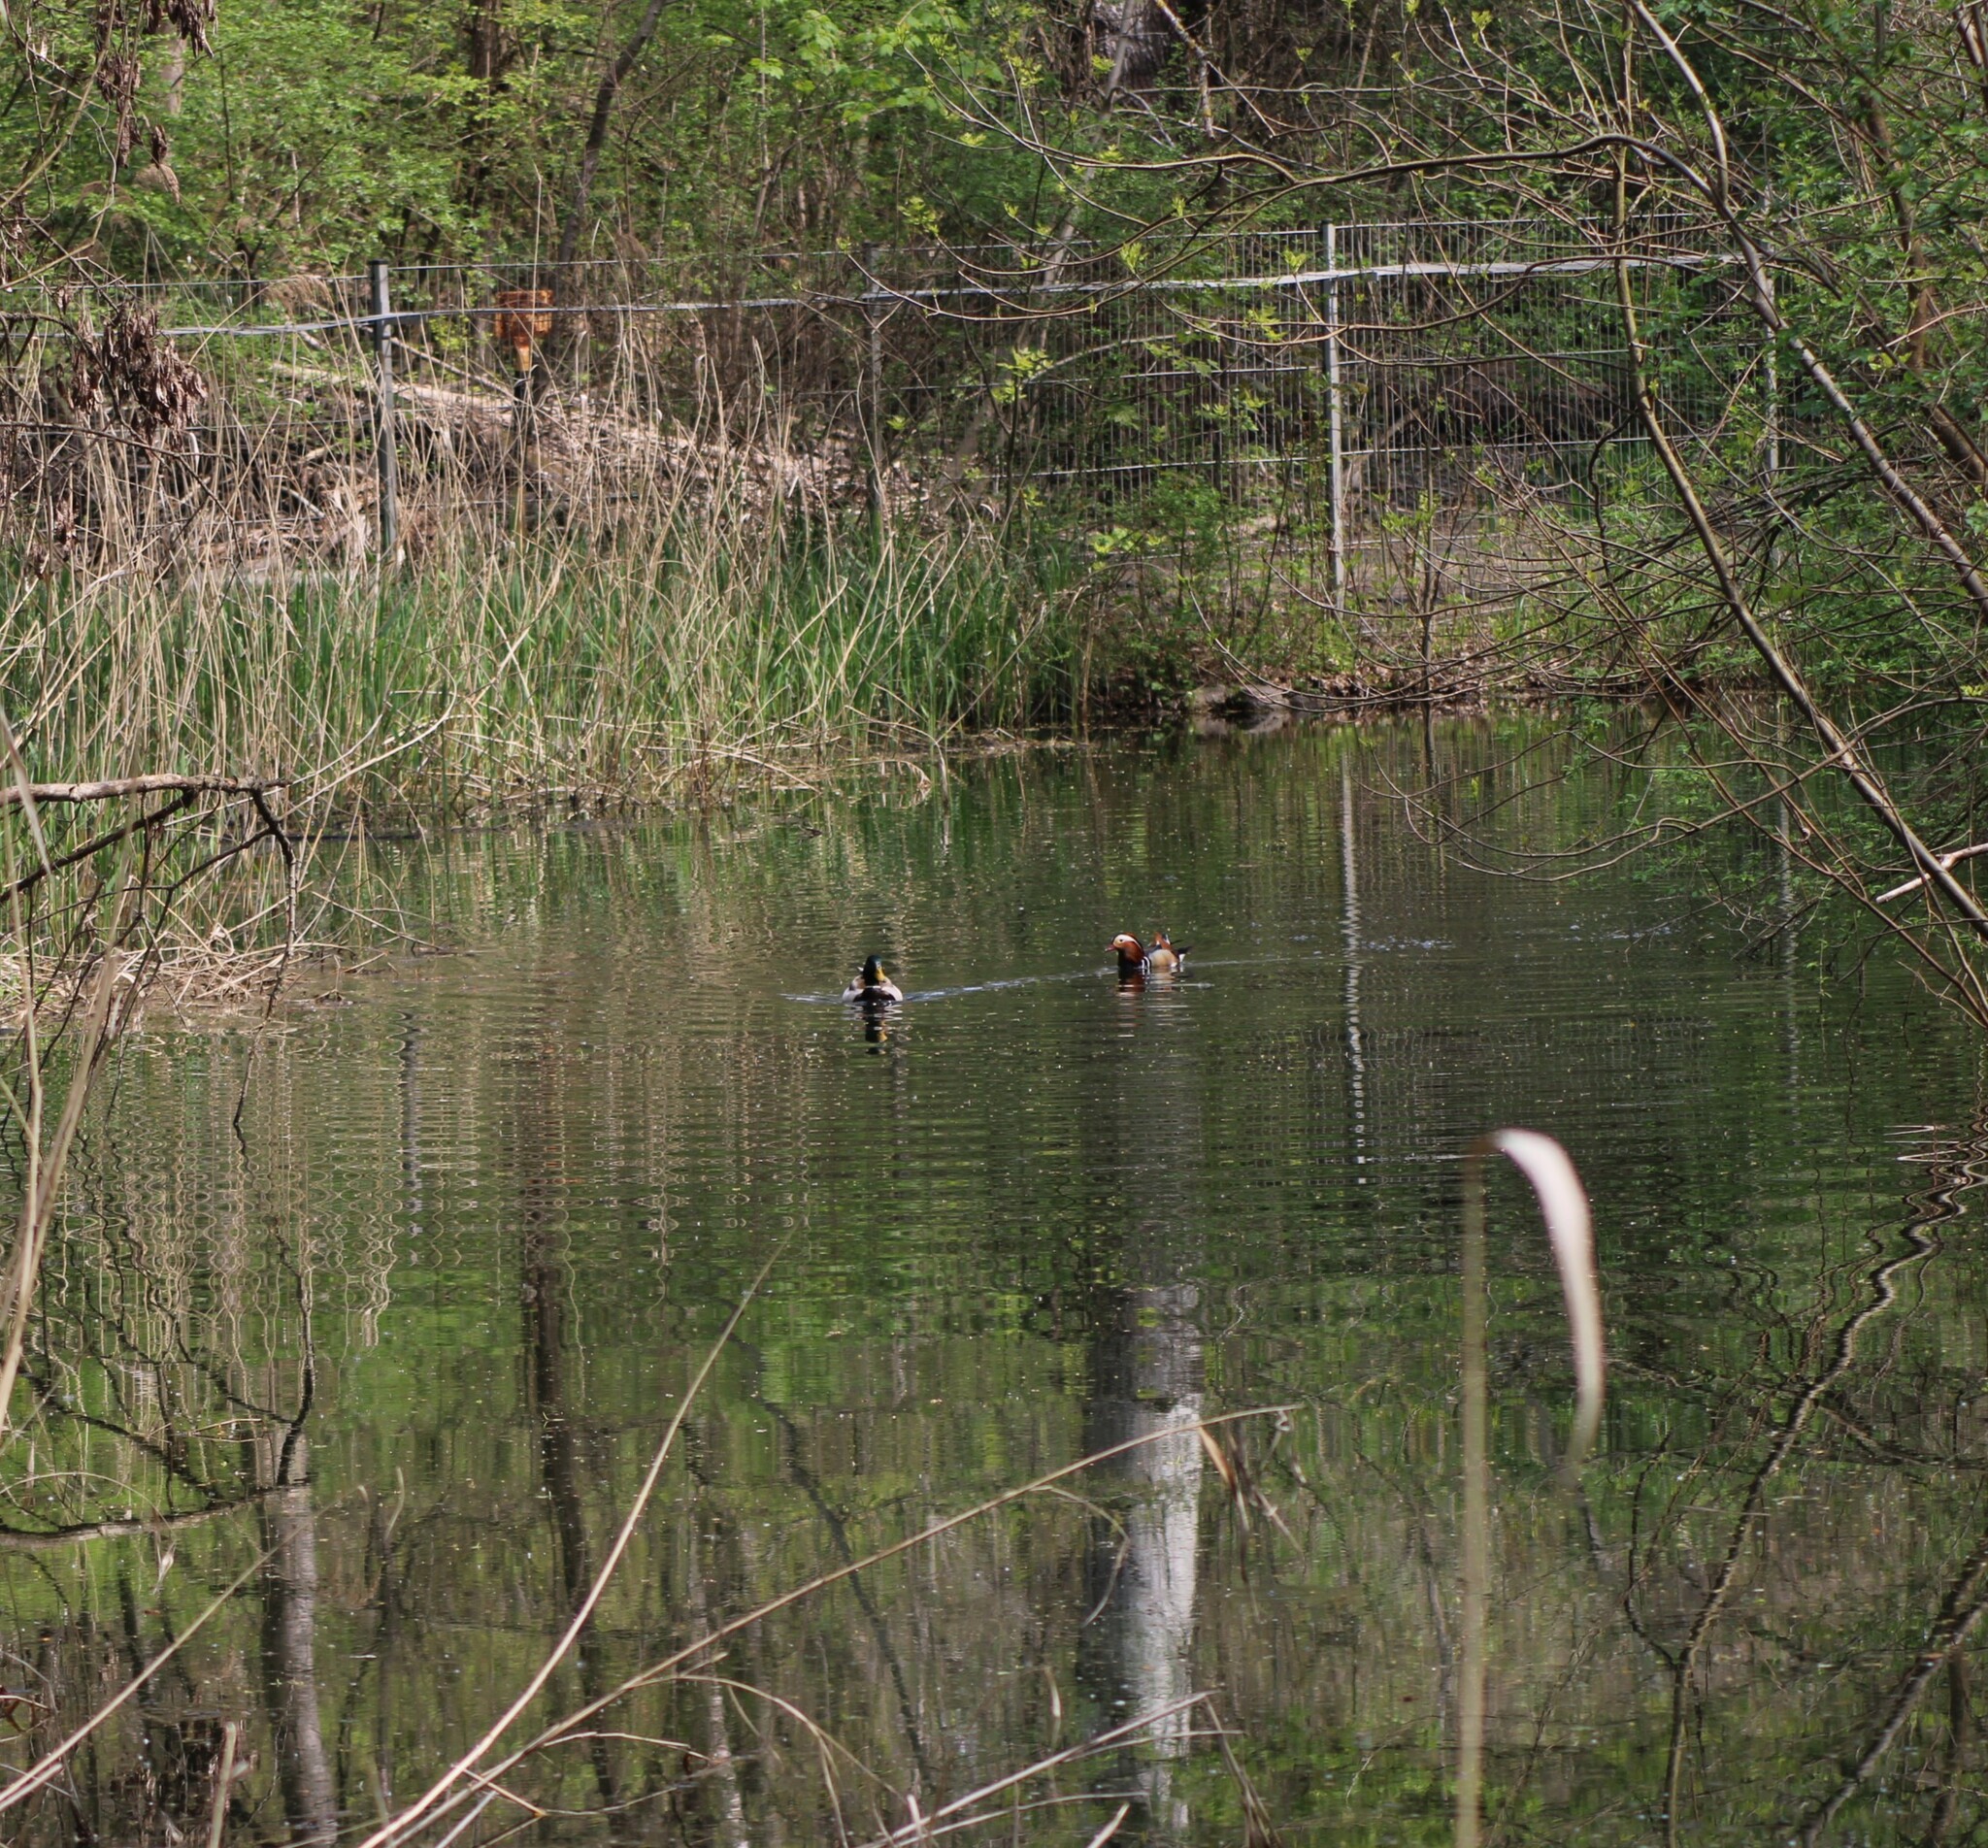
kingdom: Animalia
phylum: Chordata
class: Aves
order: Anseriformes
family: Anatidae
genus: Anas
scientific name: Anas platyrhynchos
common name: Mallard
